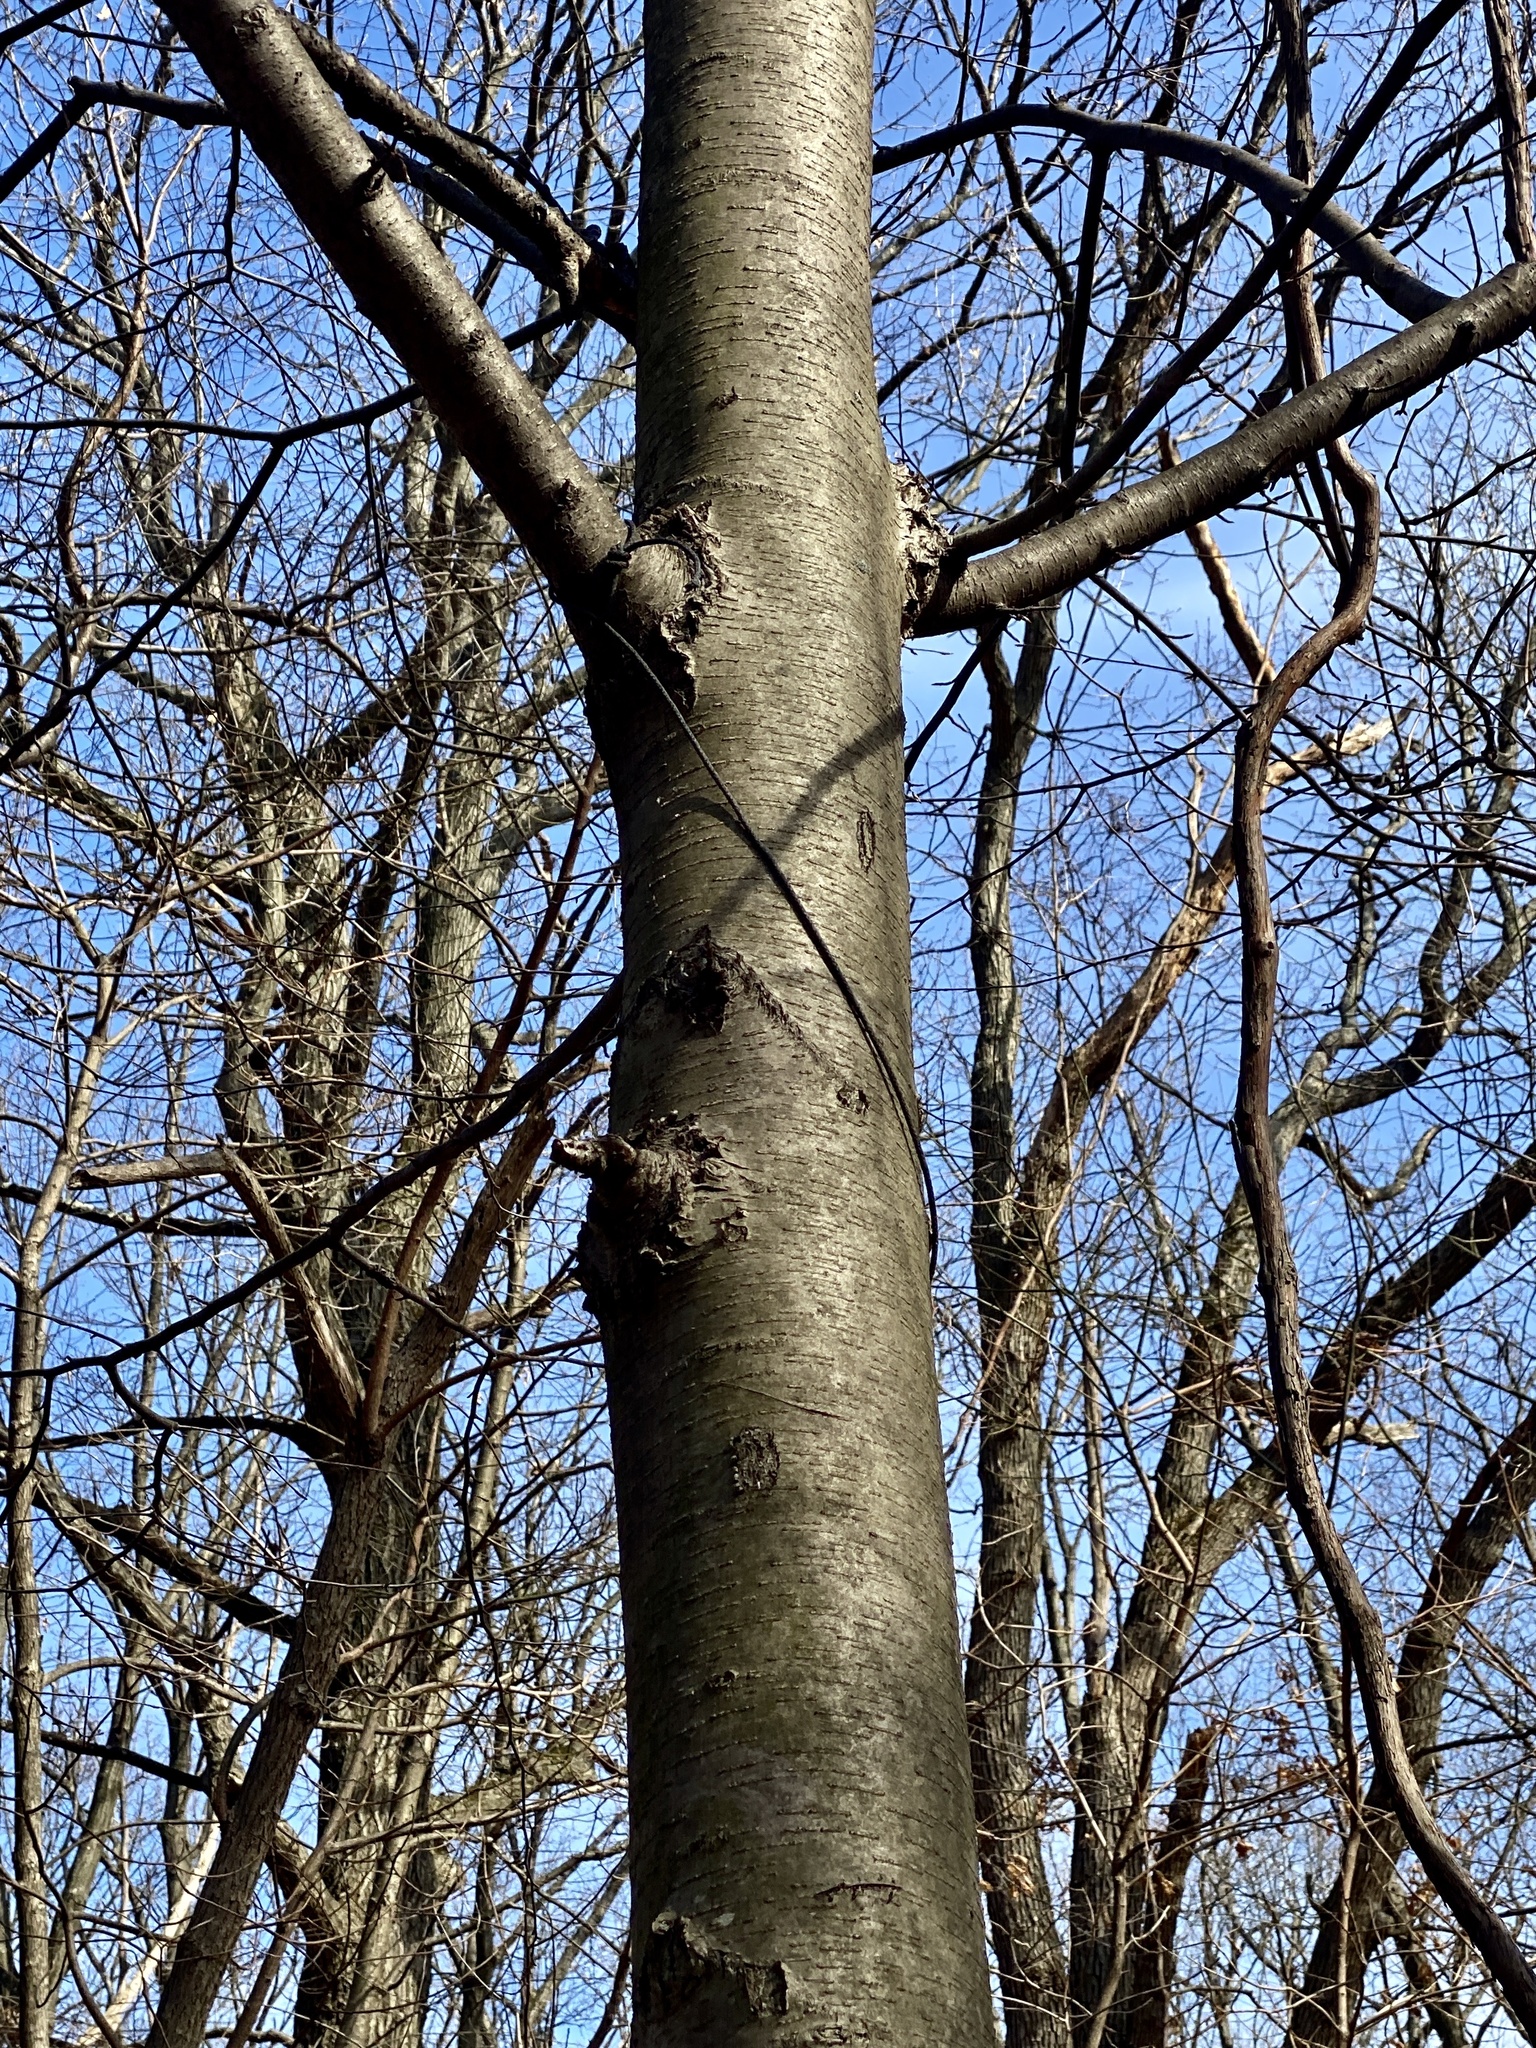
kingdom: Plantae
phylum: Tracheophyta
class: Magnoliopsida
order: Fagales
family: Betulaceae
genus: Betula
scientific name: Betula lenta
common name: Black birch
